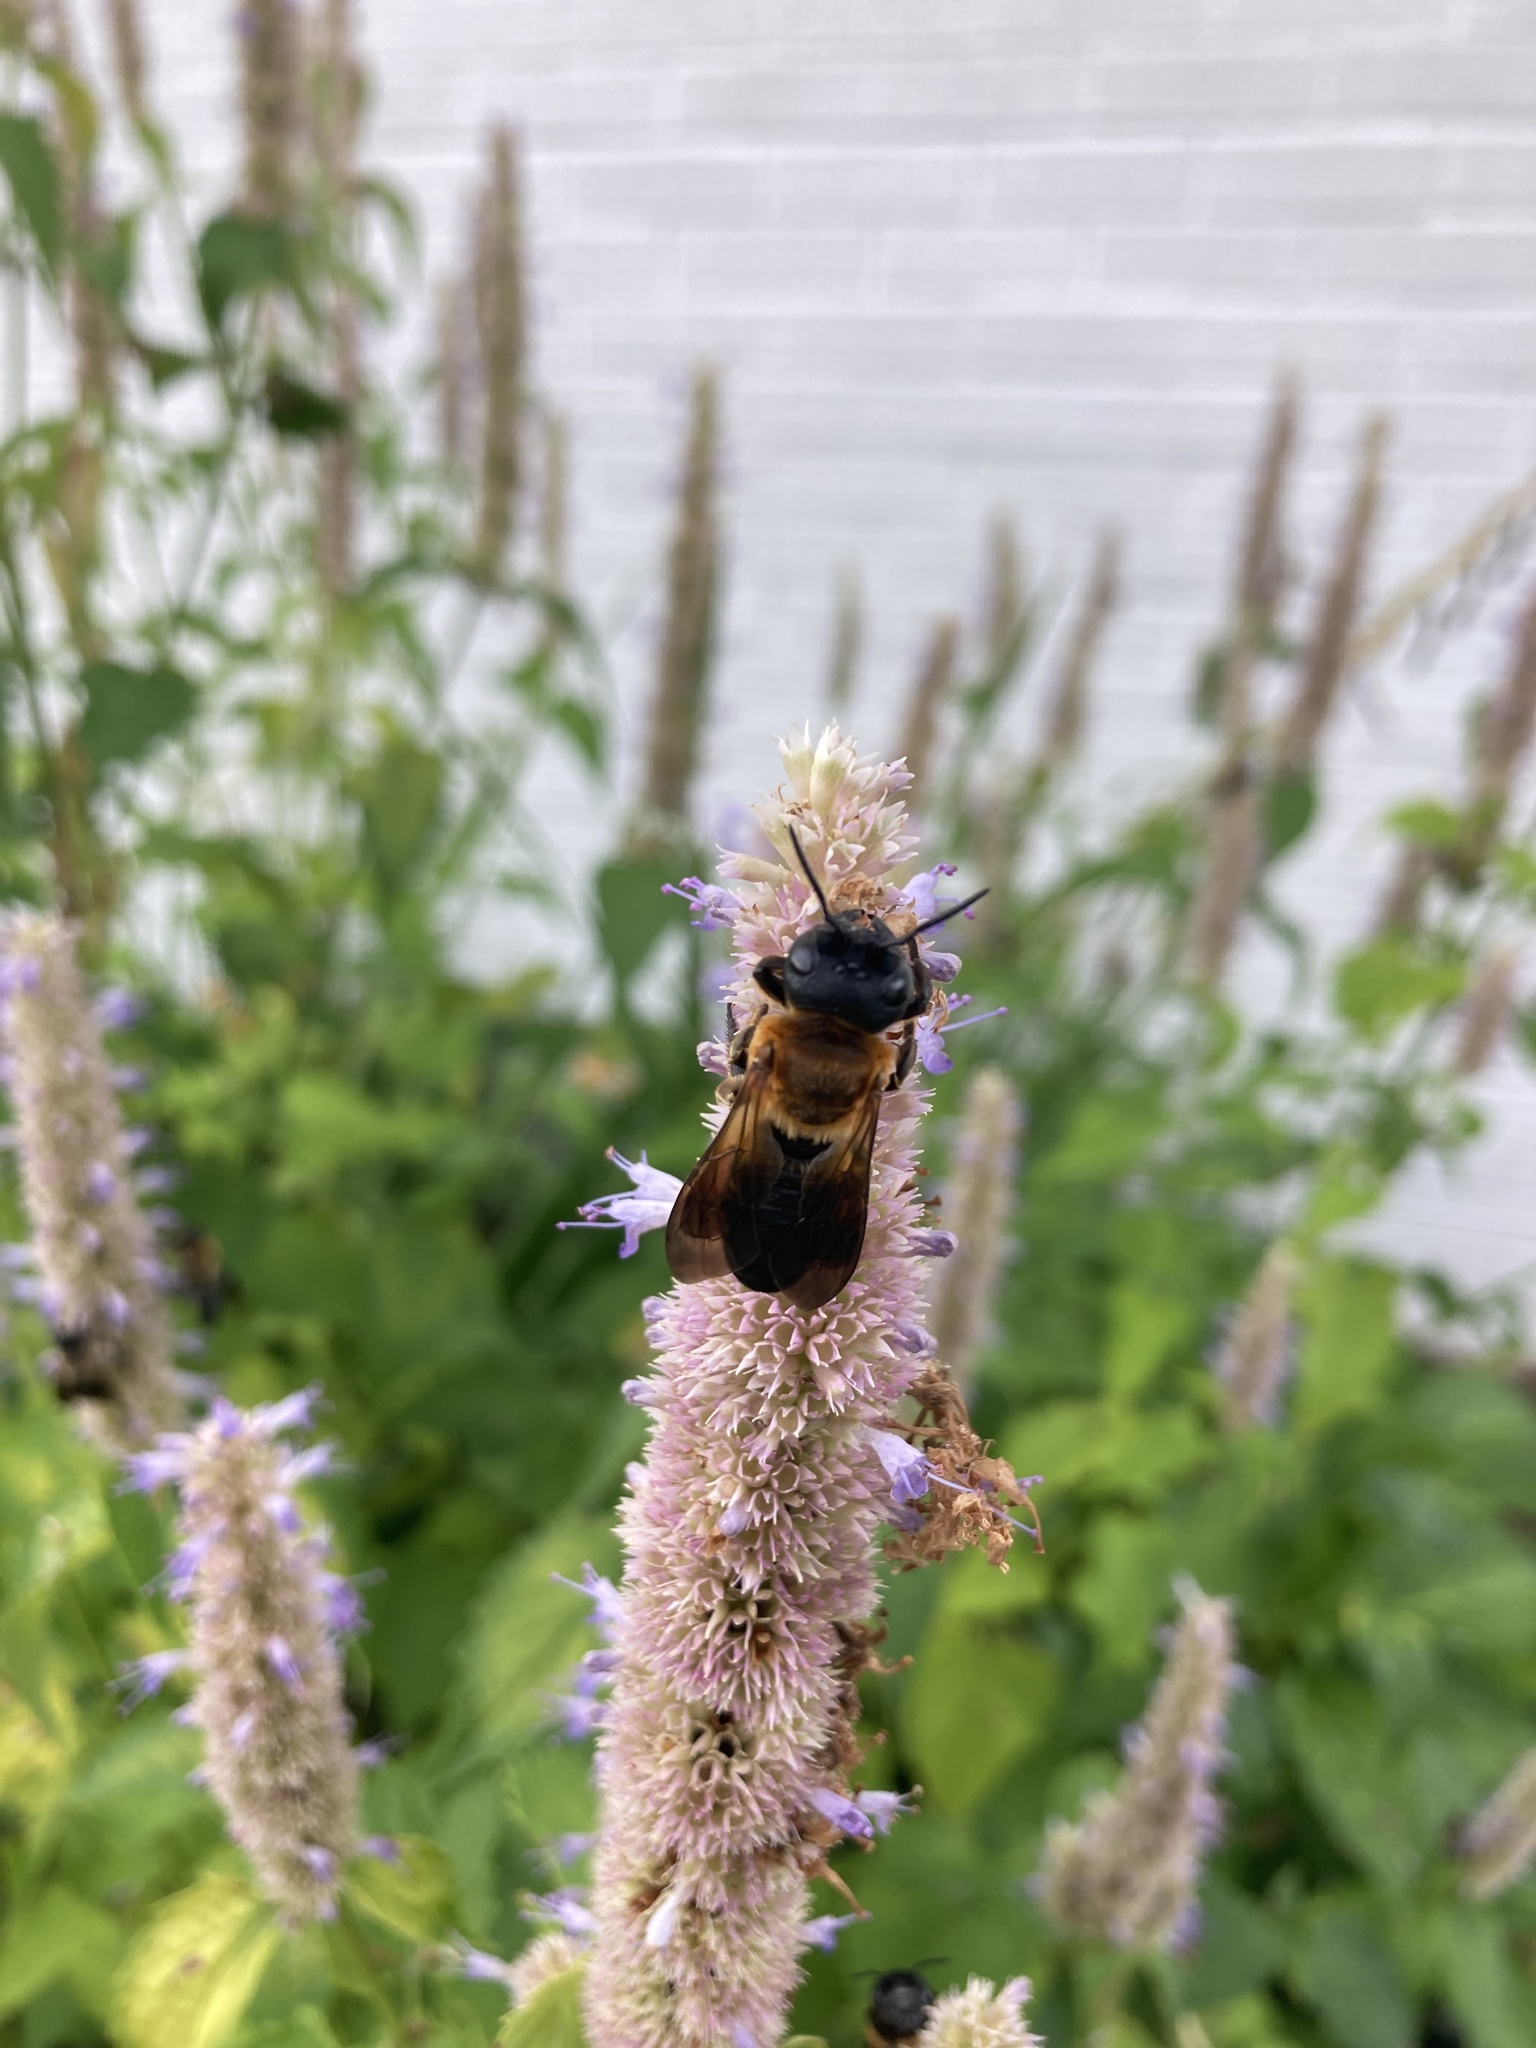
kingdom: Animalia
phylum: Arthropoda
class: Insecta
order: Hymenoptera
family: Megachilidae
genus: Megachile
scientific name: Megachile sculpturalis
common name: Sculptured resin bee
